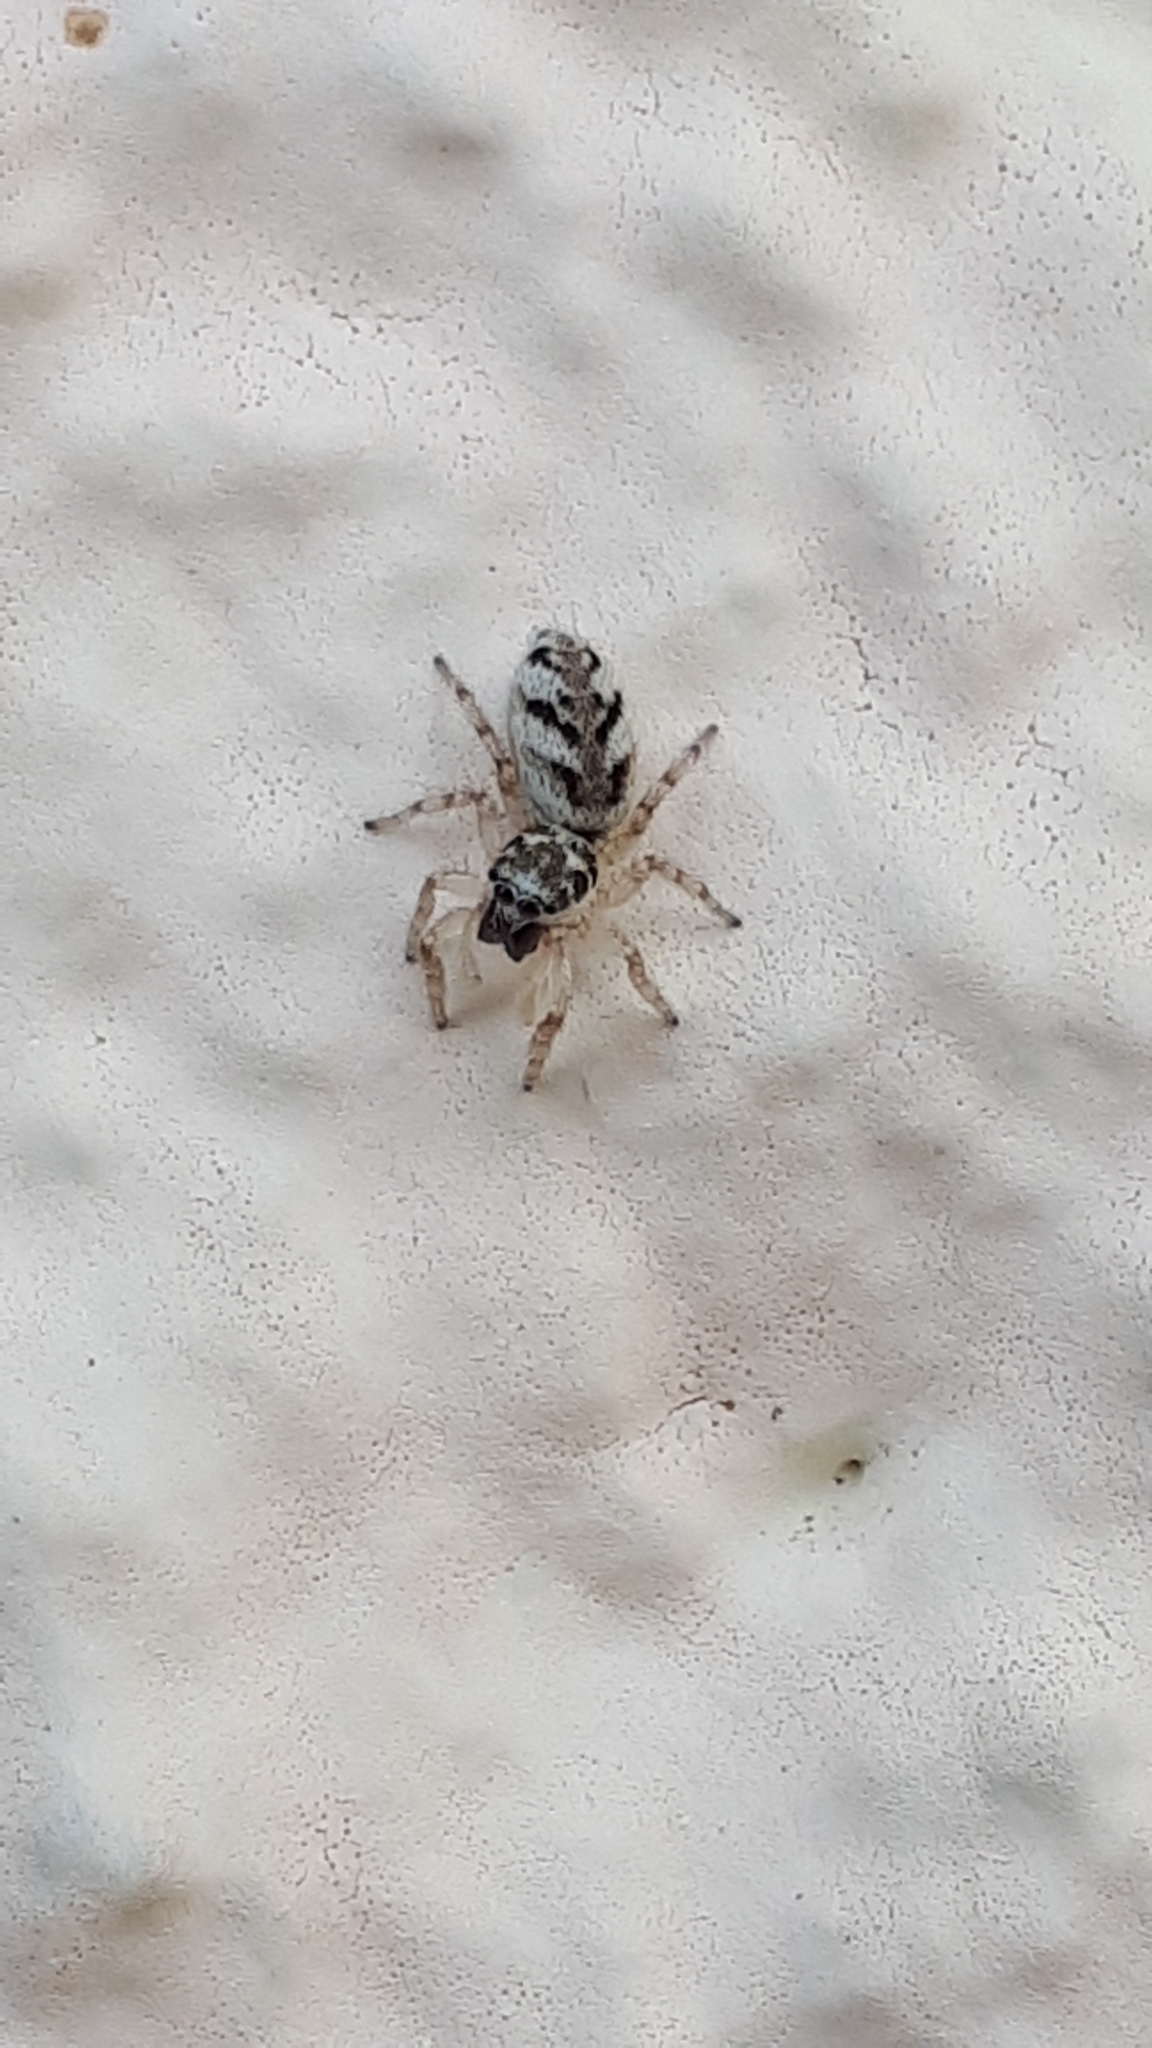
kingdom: Animalia
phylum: Arthropoda
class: Arachnida
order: Araneae
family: Salticidae
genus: Salticus
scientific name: Salticus scenicus
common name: Zebra jumper
